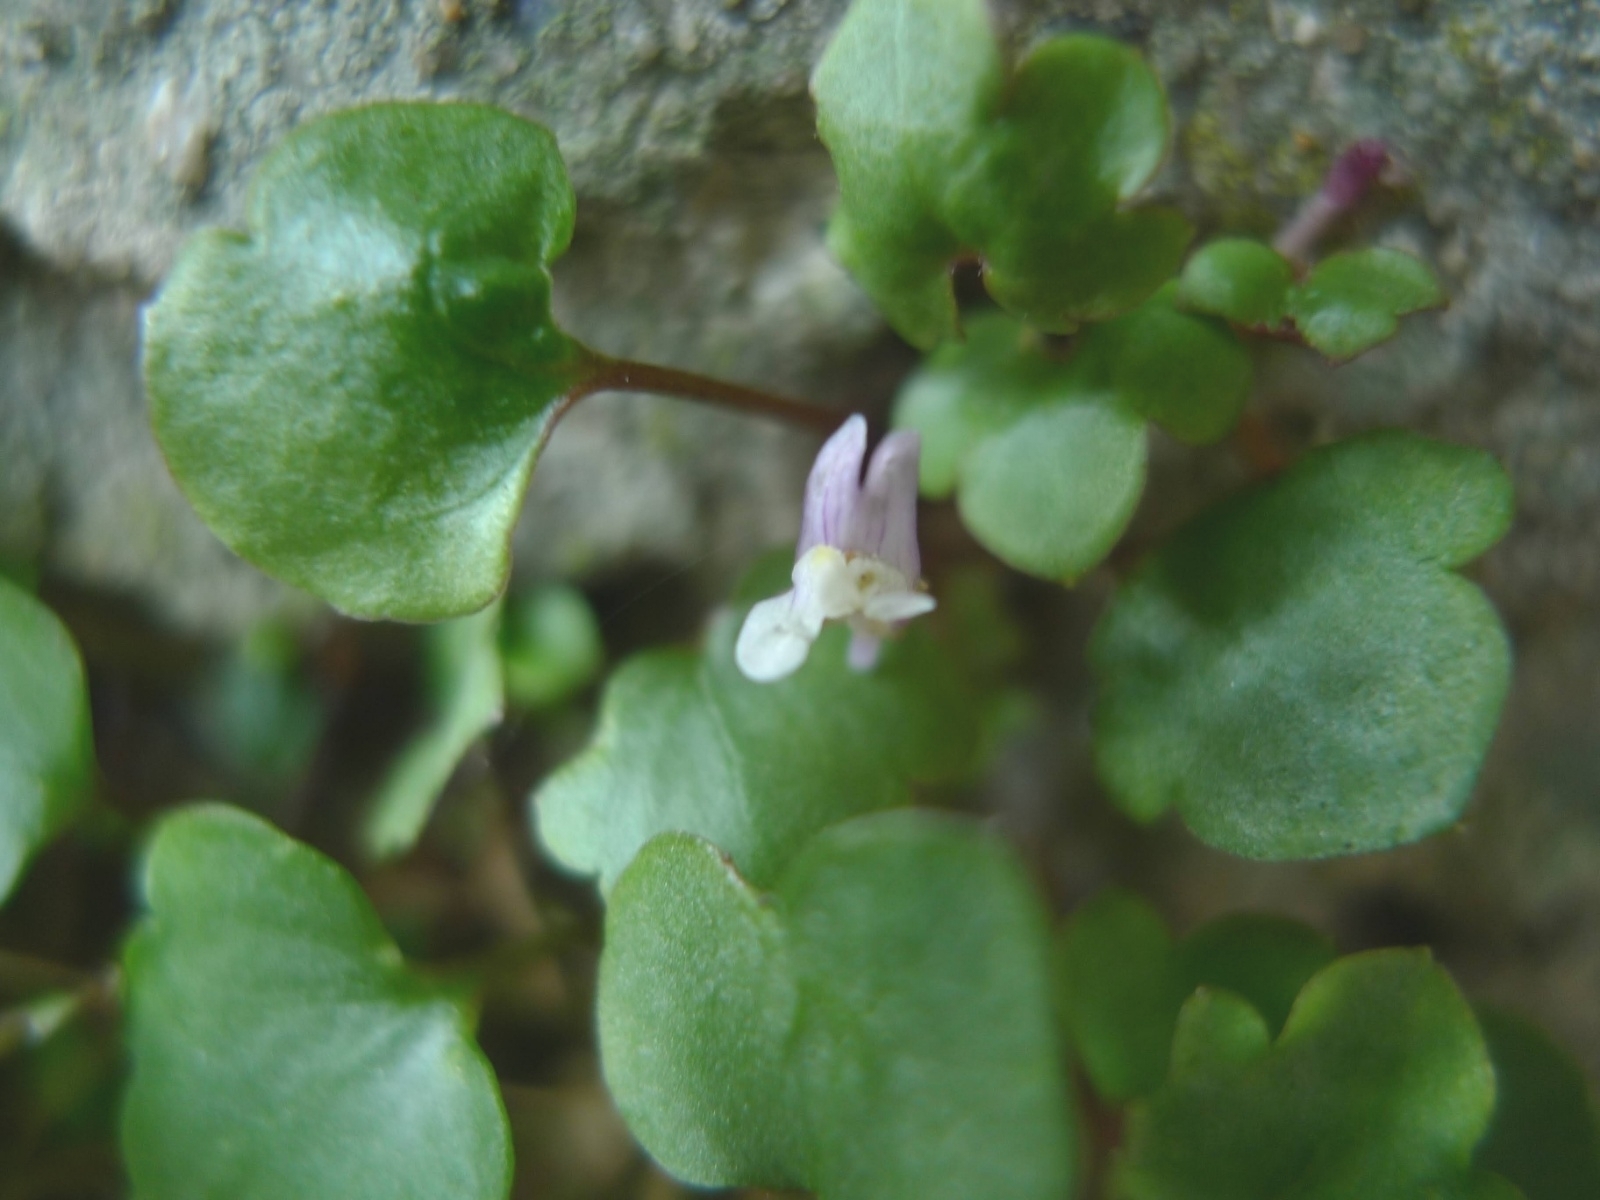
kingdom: Plantae
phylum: Tracheophyta
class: Magnoliopsida
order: Lamiales
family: Plantaginaceae
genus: Cymbalaria
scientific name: Cymbalaria muralis
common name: Ivy-leaved toadflax
